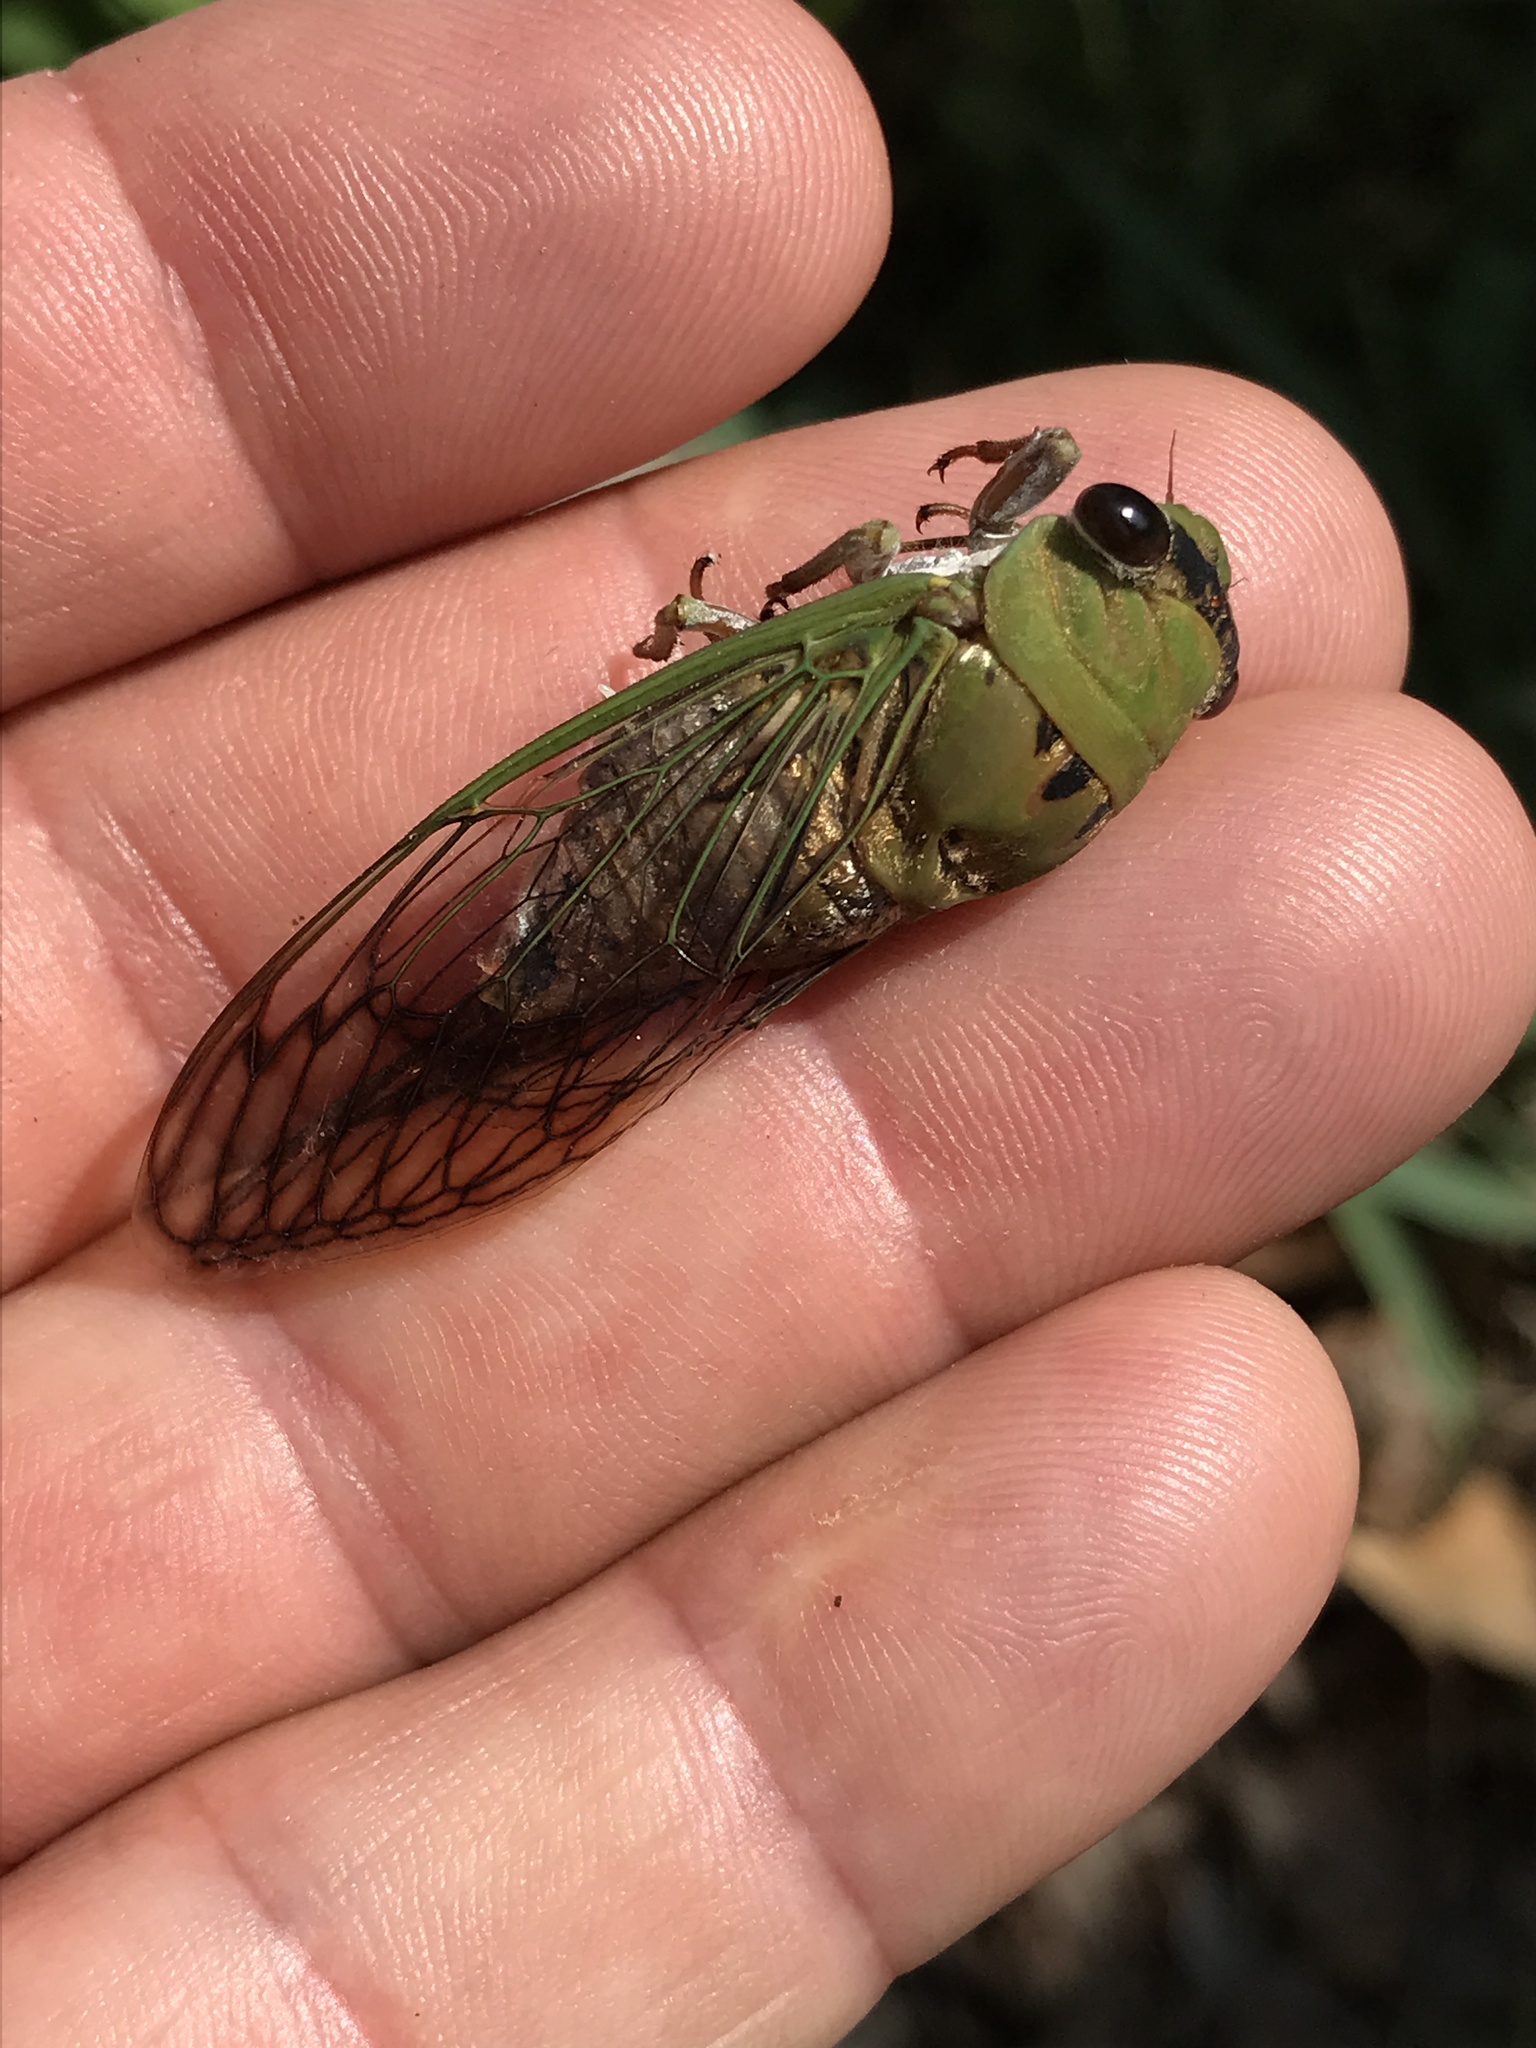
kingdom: Animalia
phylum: Arthropoda
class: Insecta
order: Hemiptera
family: Cicadidae
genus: Neotibicen
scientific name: Neotibicen superbus
